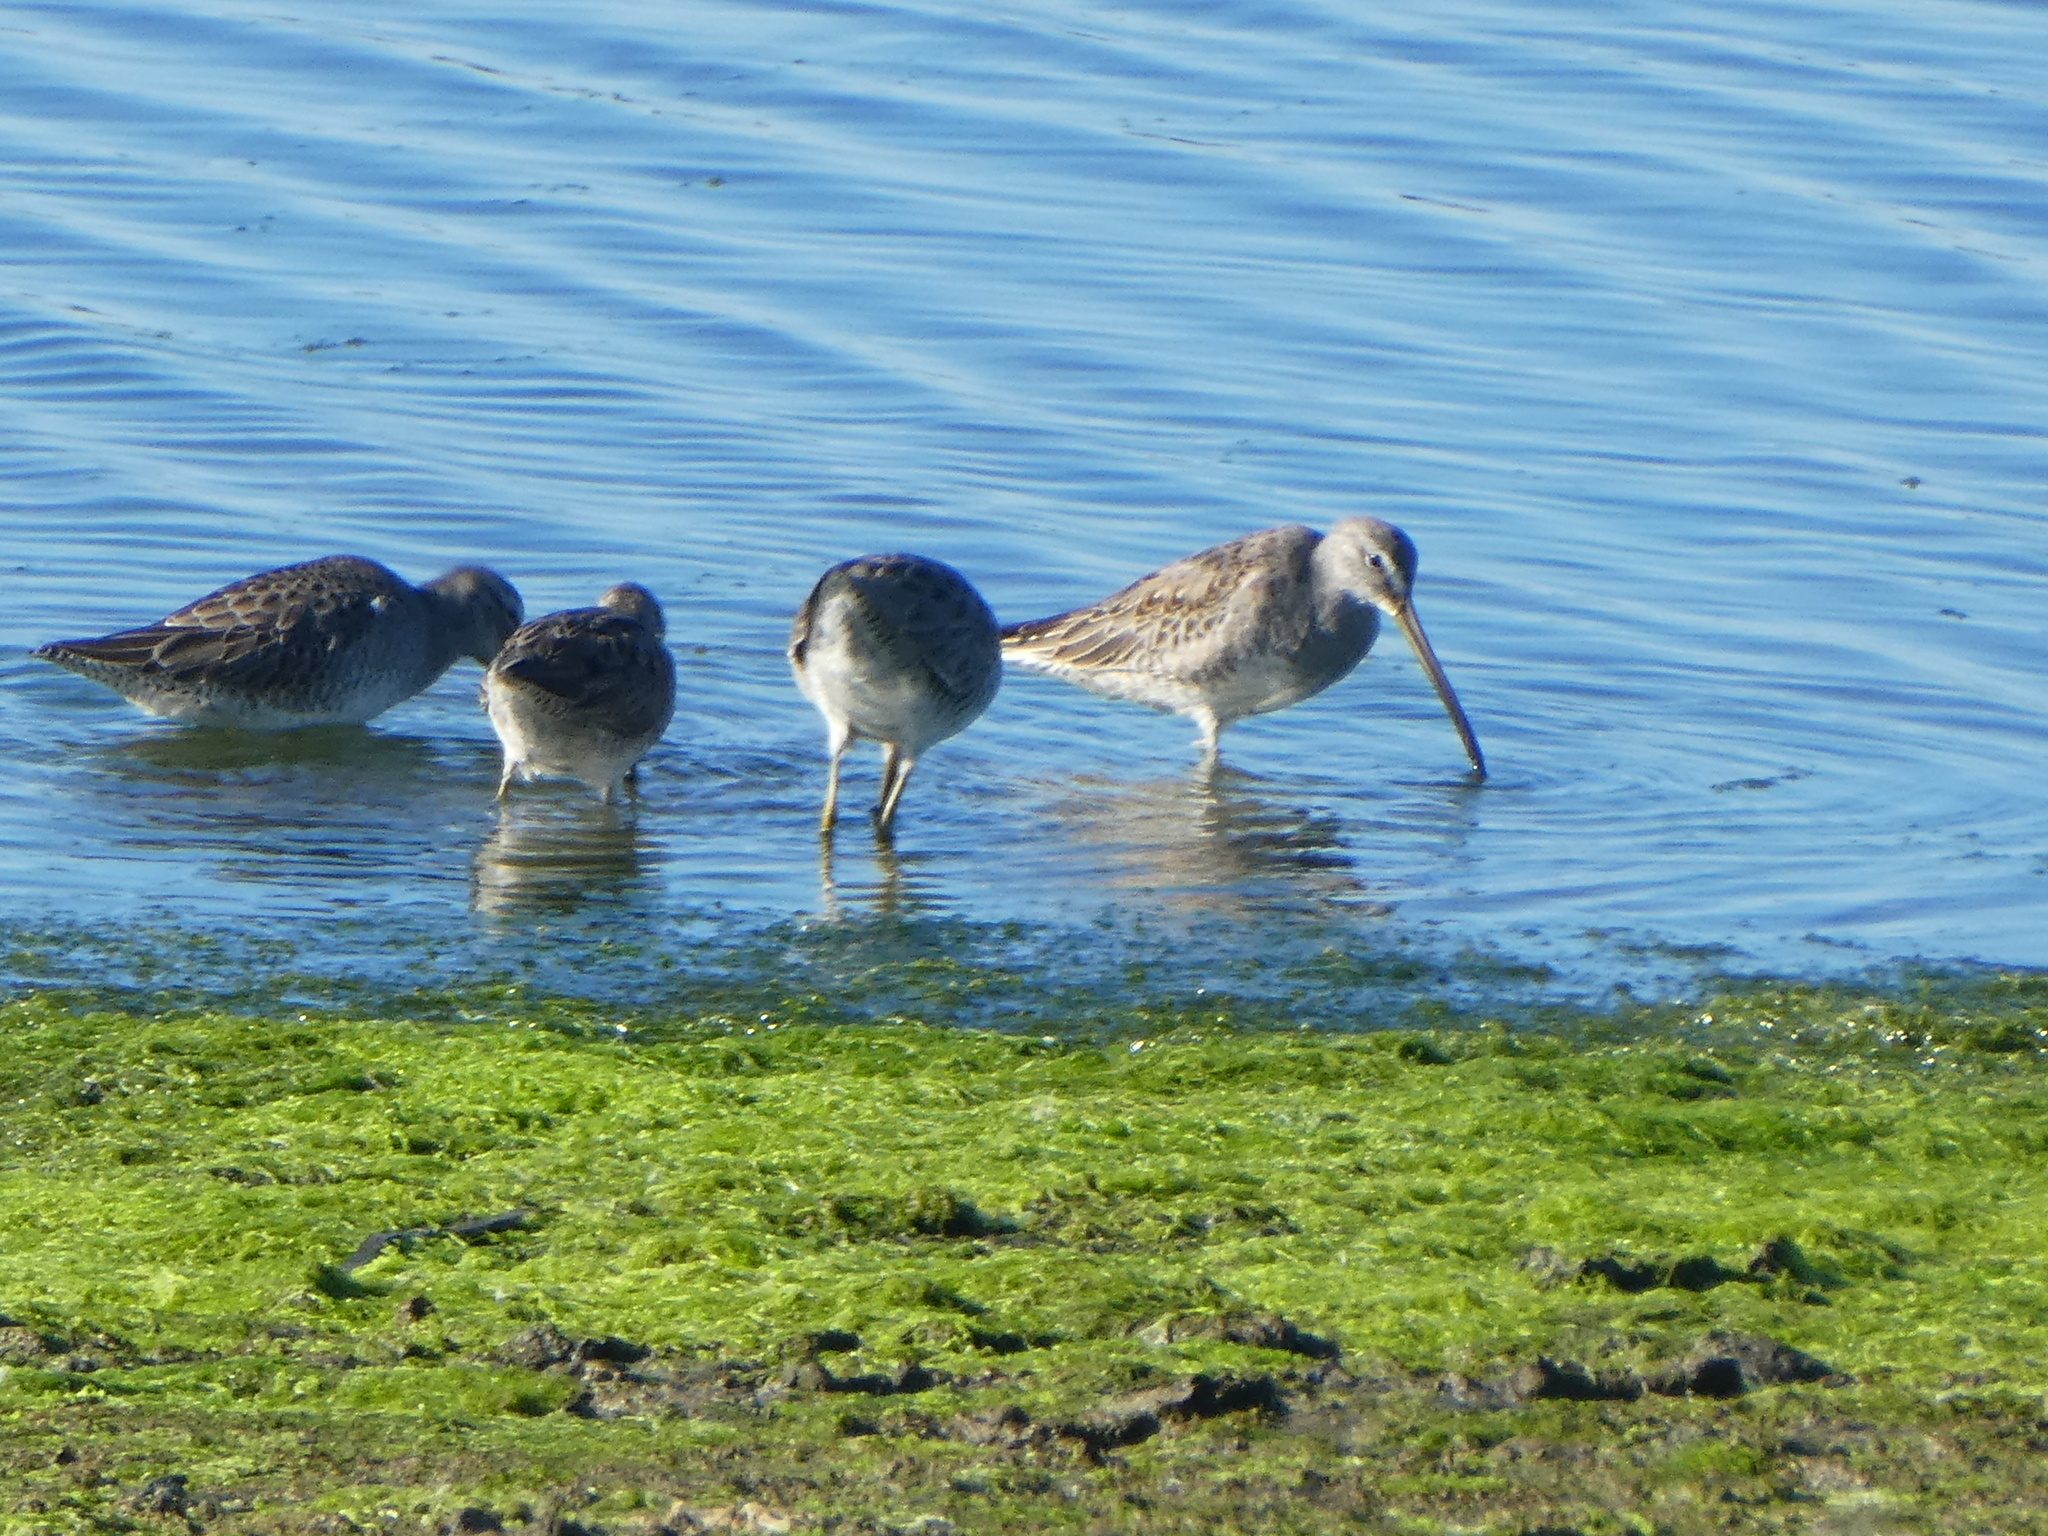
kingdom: Animalia
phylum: Chordata
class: Aves
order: Charadriiformes
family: Scolopacidae
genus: Limnodromus
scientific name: Limnodromus scolopaceus
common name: Long-billed dowitcher
